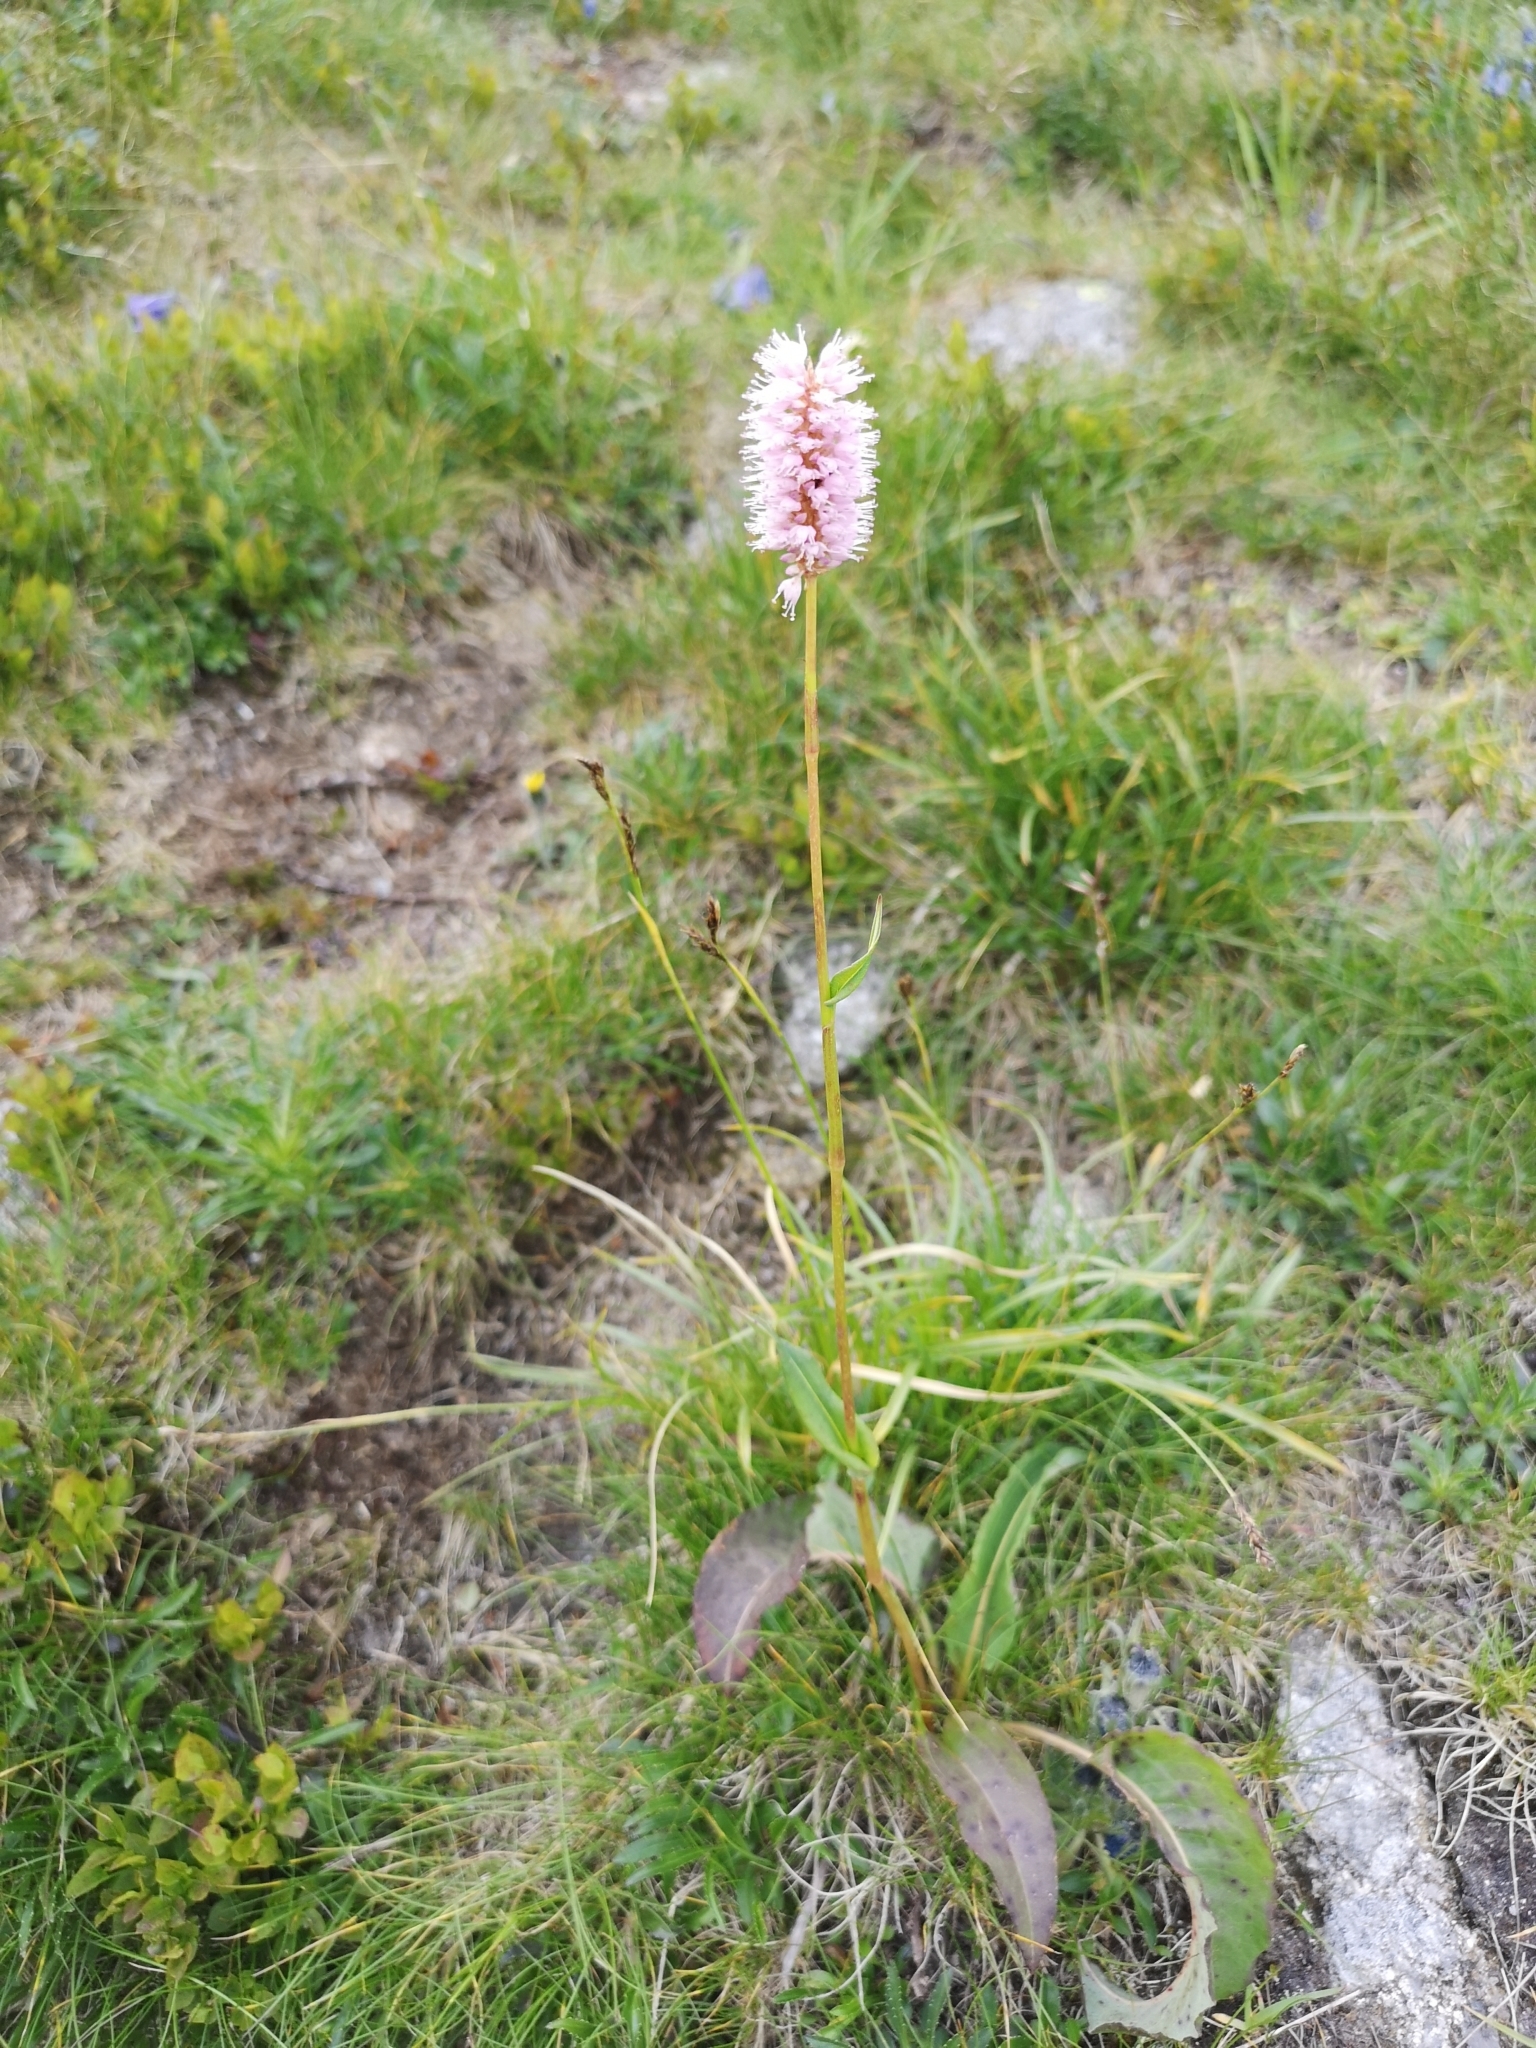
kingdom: Plantae
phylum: Tracheophyta
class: Magnoliopsida
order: Caryophyllales
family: Polygonaceae
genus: Bistorta
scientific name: Bistorta officinalis
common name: Common bistort
